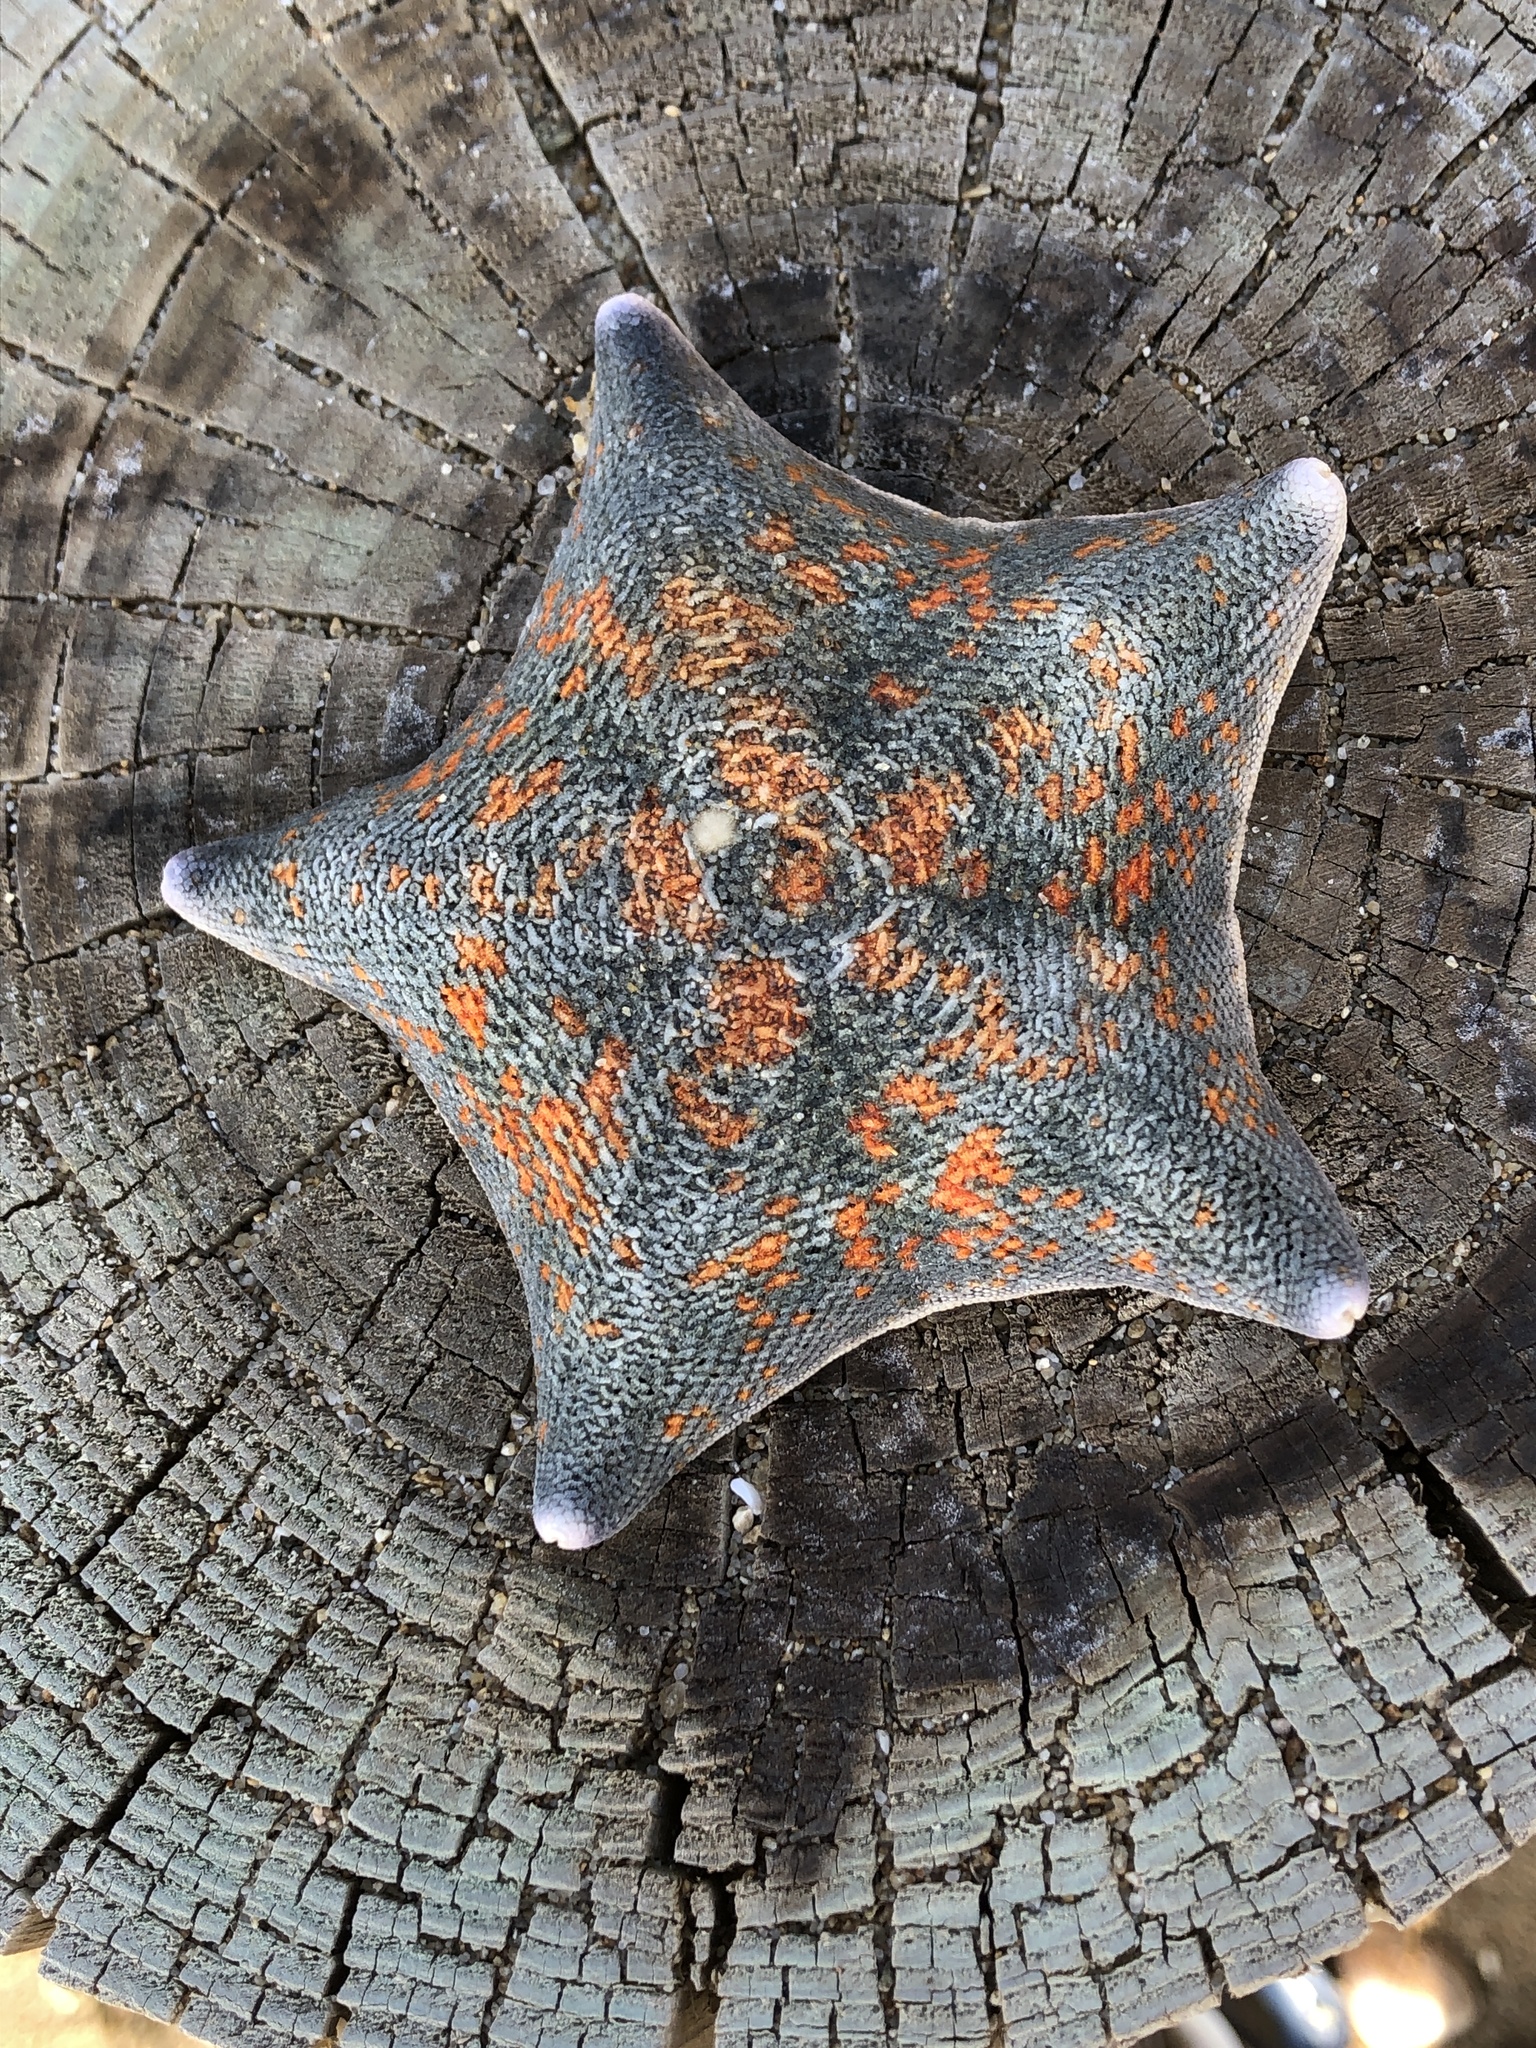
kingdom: Animalia
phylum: Echinodermata
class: Asteroidea
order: Valvatida
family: Asterinidae
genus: Patiria
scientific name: Patiria pectinifera
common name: Blue bat star
